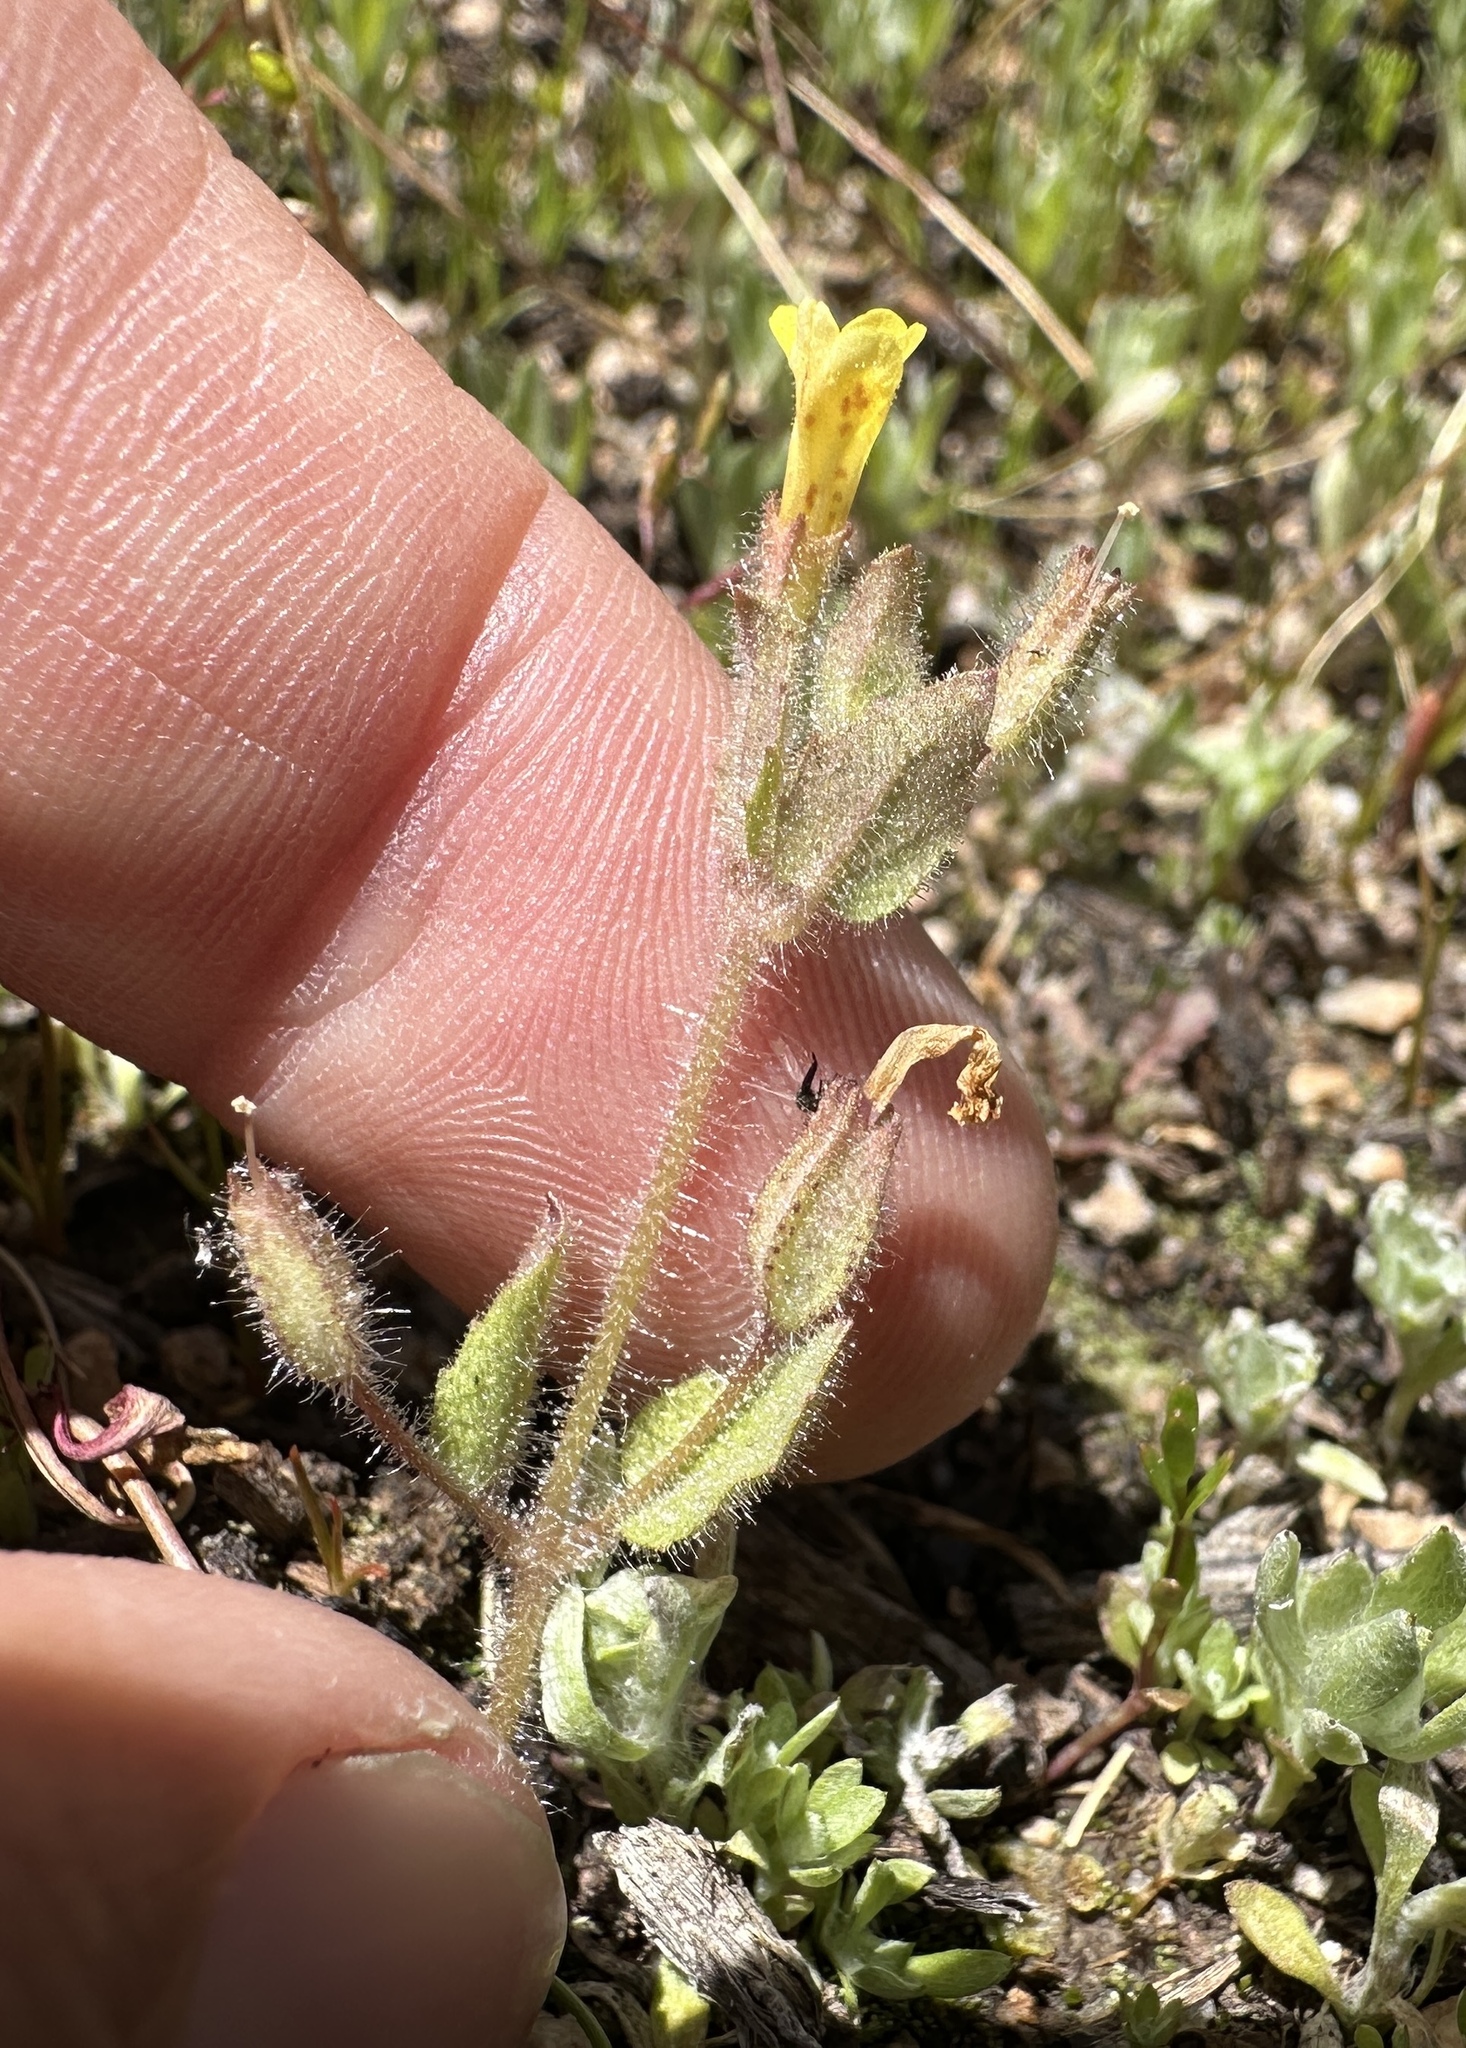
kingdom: Plantae
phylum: Tracheophyta
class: Magnoliopsida
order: Lamiales
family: Phrymaceae
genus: Erythranthe
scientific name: Erythranthe floribunda
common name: Floriferous monkeyflower
